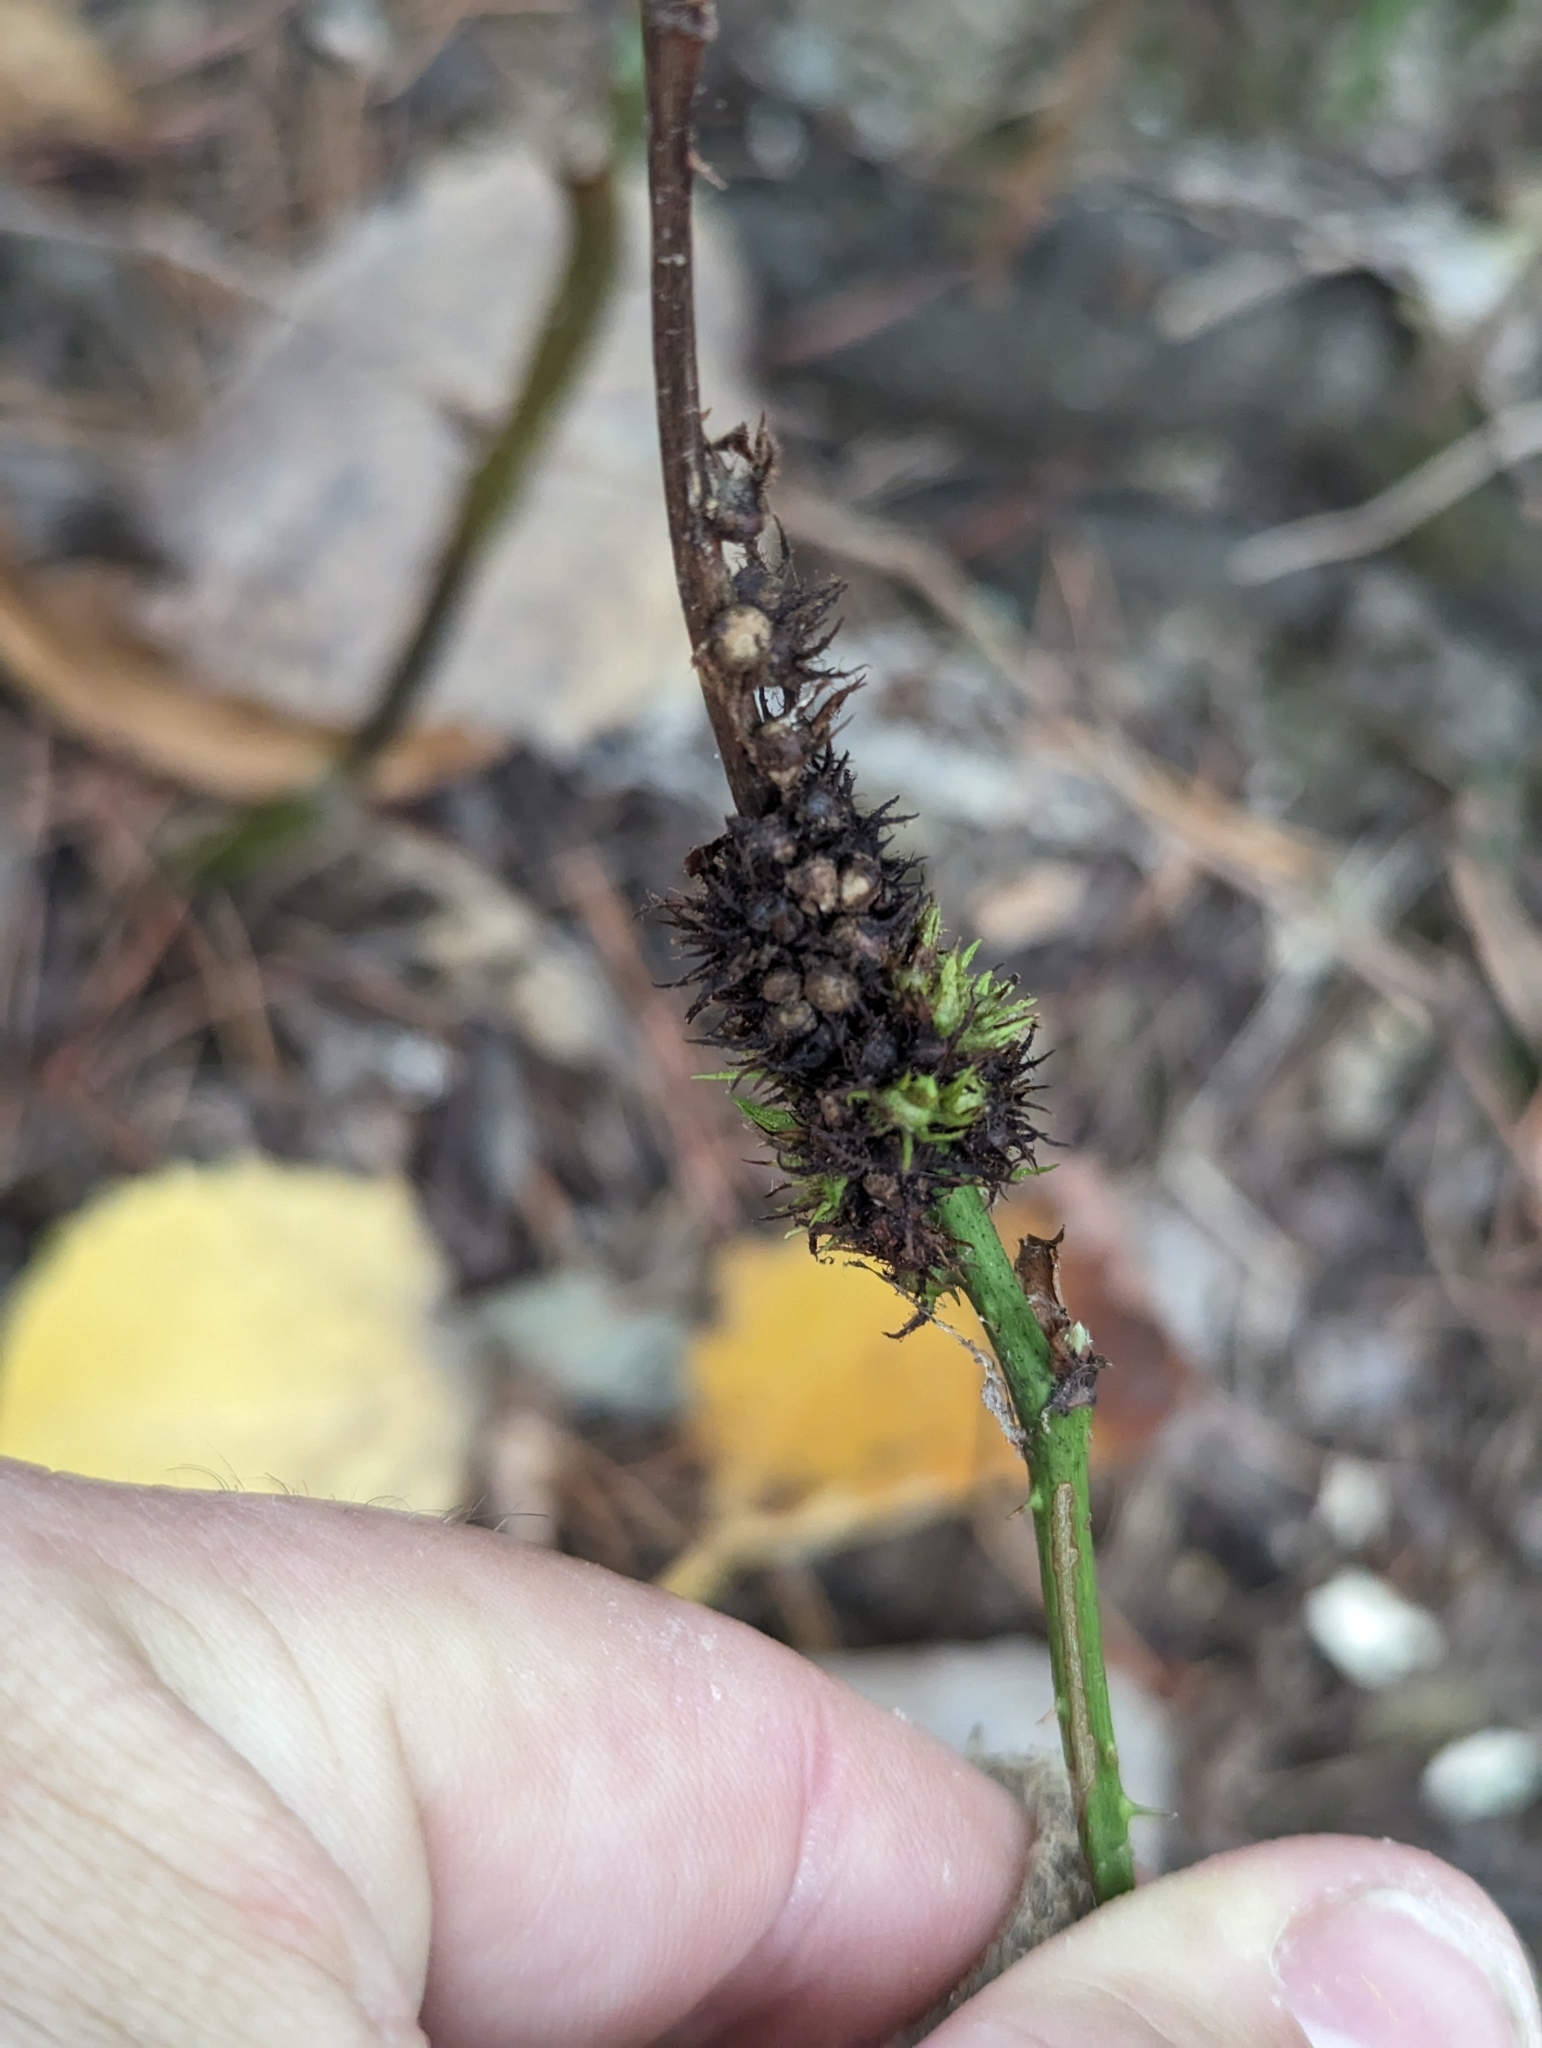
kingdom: Animalia
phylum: Arthropoda
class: Insecta
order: Hymenoptera
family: Cynipidae
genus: Diastrophus
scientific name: Diastrophus
